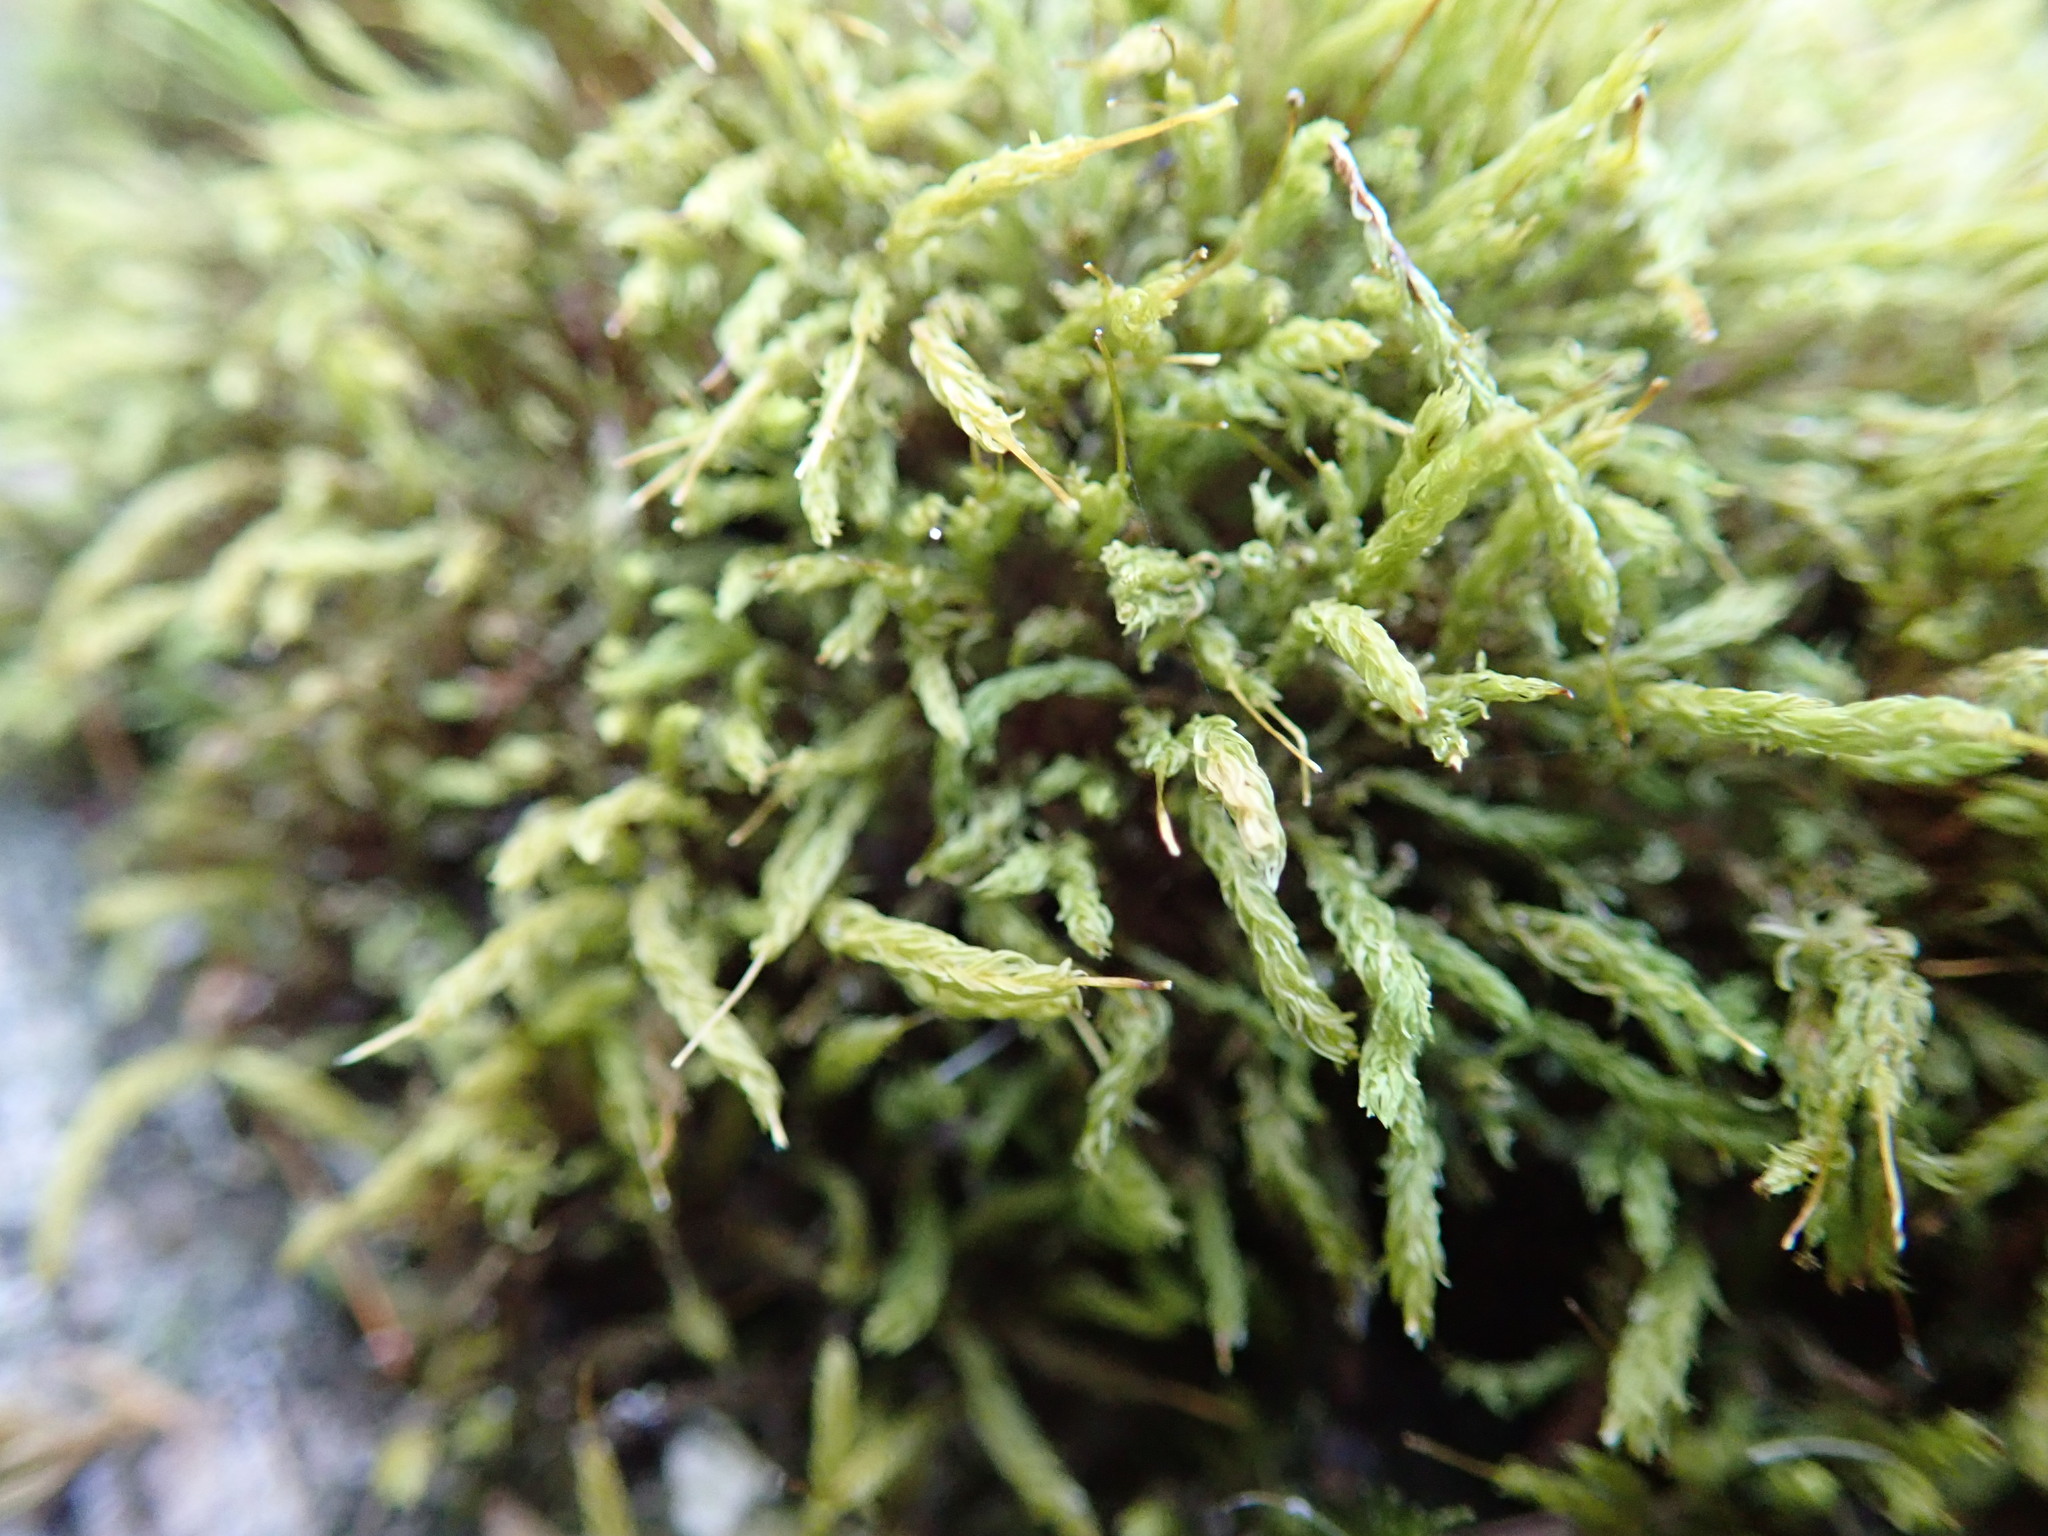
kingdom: Plantae
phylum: Bryophyta
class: Bryopsida
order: Aulacomniales
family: Aulacomniaceae
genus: Aulacomnium
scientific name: Aulacomnium palustre
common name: Bog groove-moss
